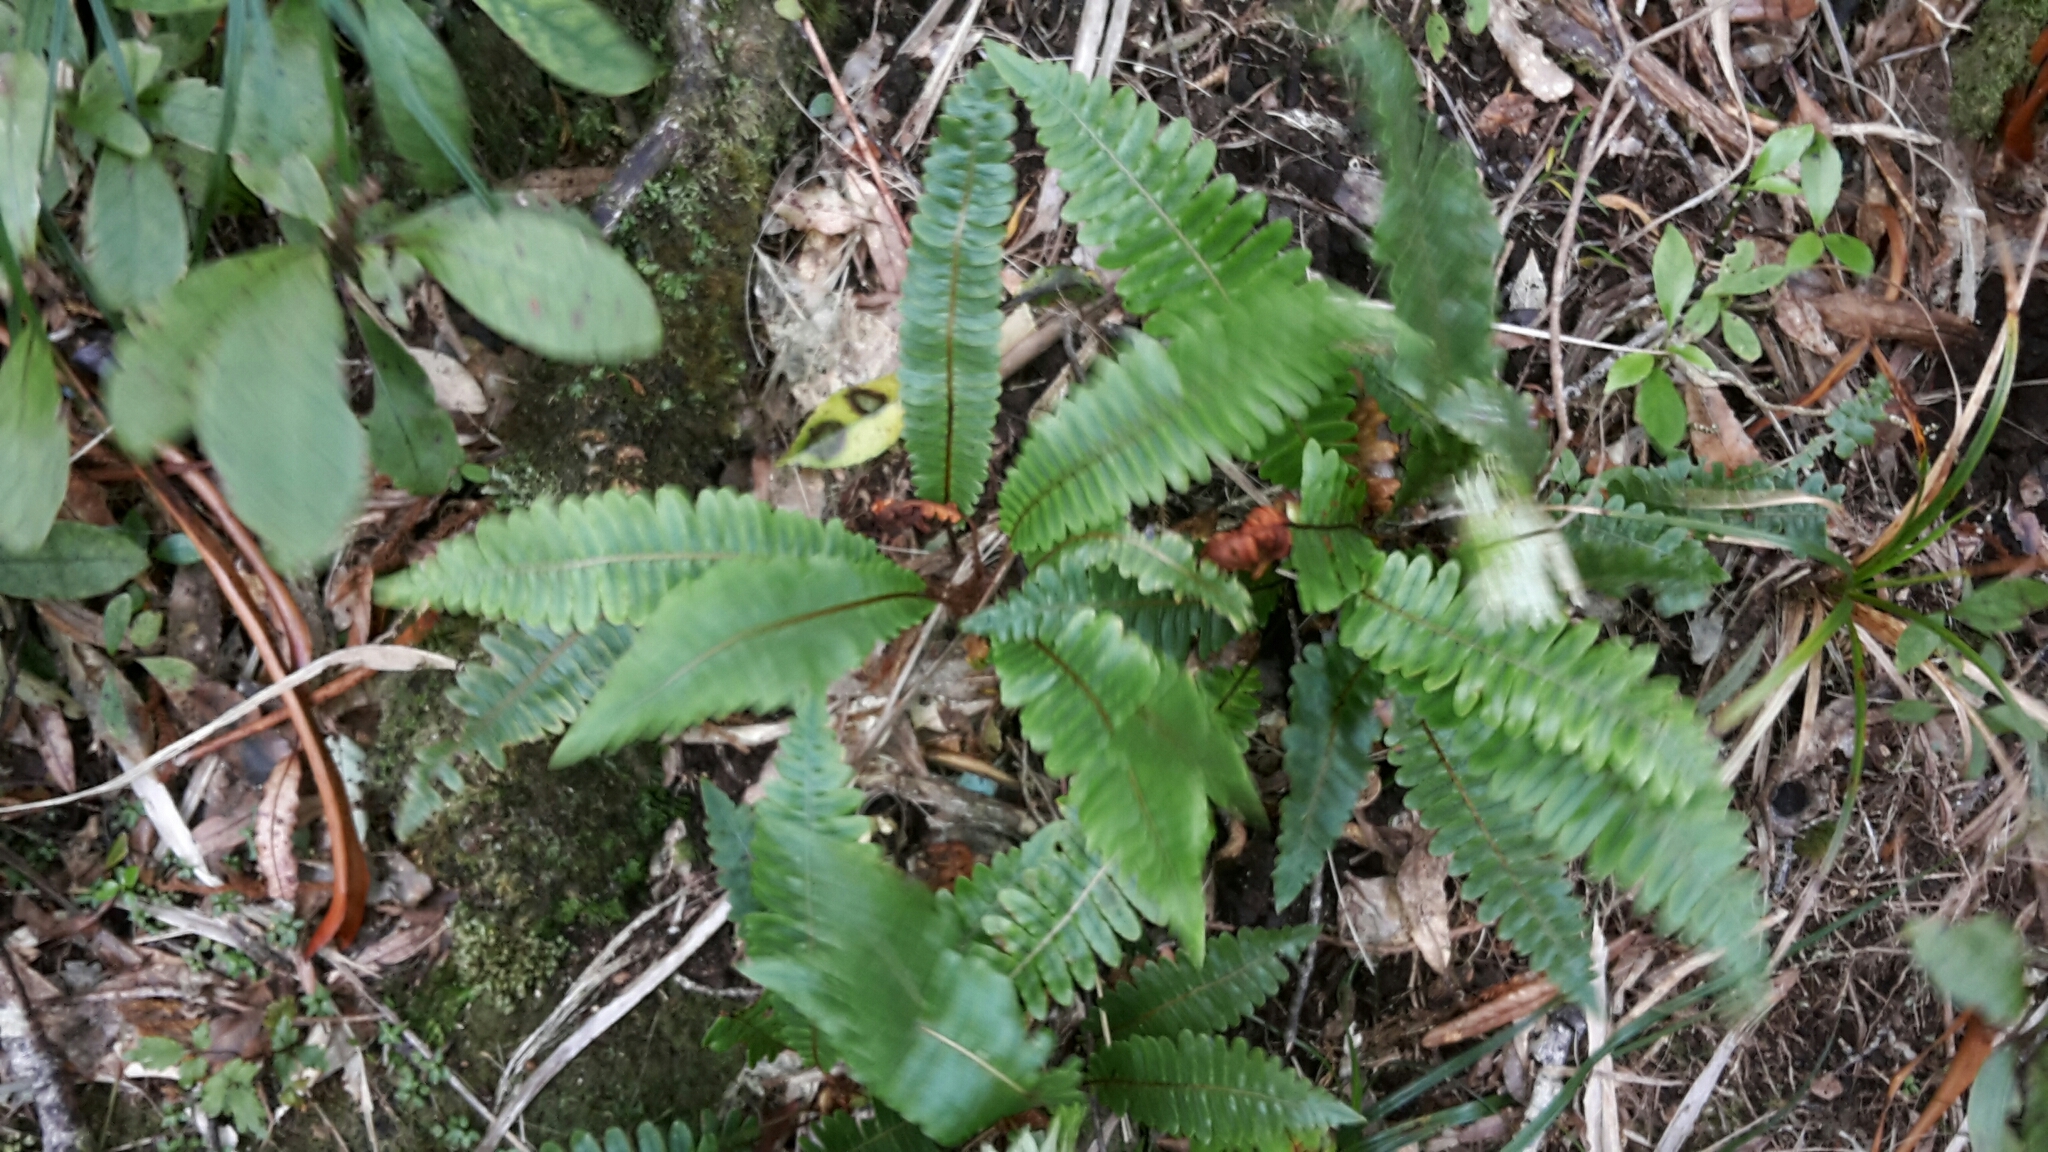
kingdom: Plantae
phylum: Tracheophyta
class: Polypodiopsida
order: Polypodiales
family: Blechnaceae
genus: Lomaria
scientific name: Lomaria discolor
